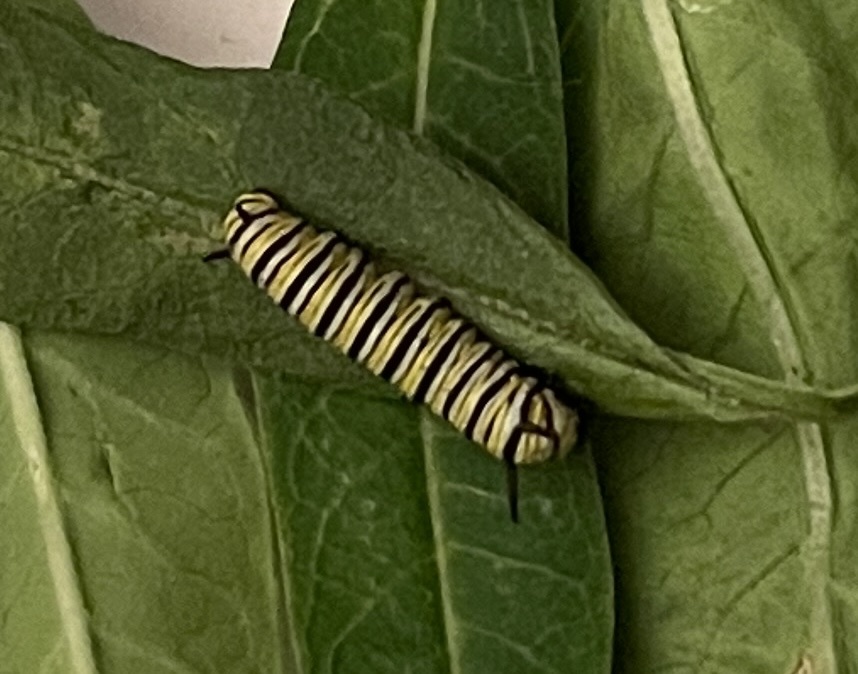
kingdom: Animalia
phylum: Arthropoda
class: Insecta
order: Lepidoptera
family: Nymphalidae
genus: Danaus
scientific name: Danaus plexippus
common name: Monarch
